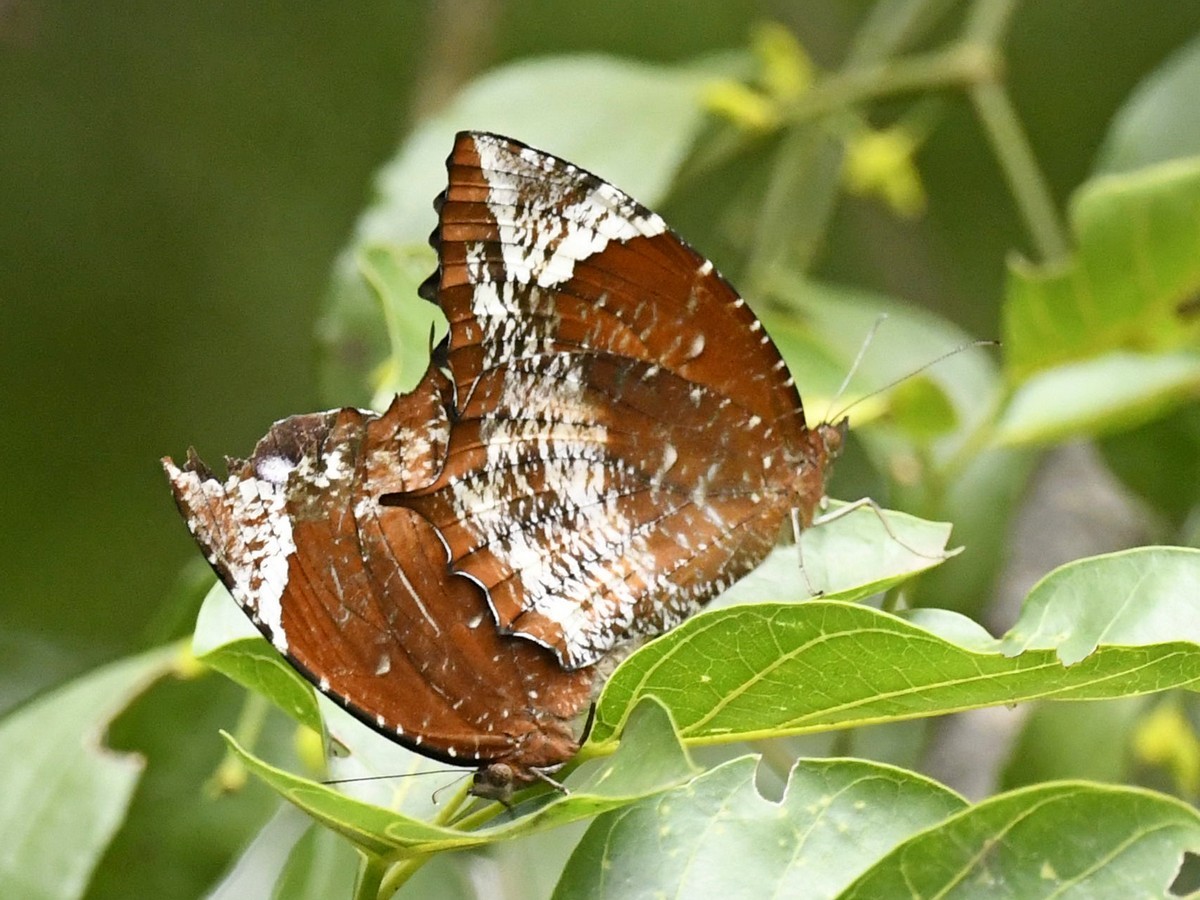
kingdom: Animalia
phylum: Arthropoda
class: Insecta
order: Lepidoptera
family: Nymphalidae
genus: Elymnias
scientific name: Elymnias caudata
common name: Tailed palmfly
